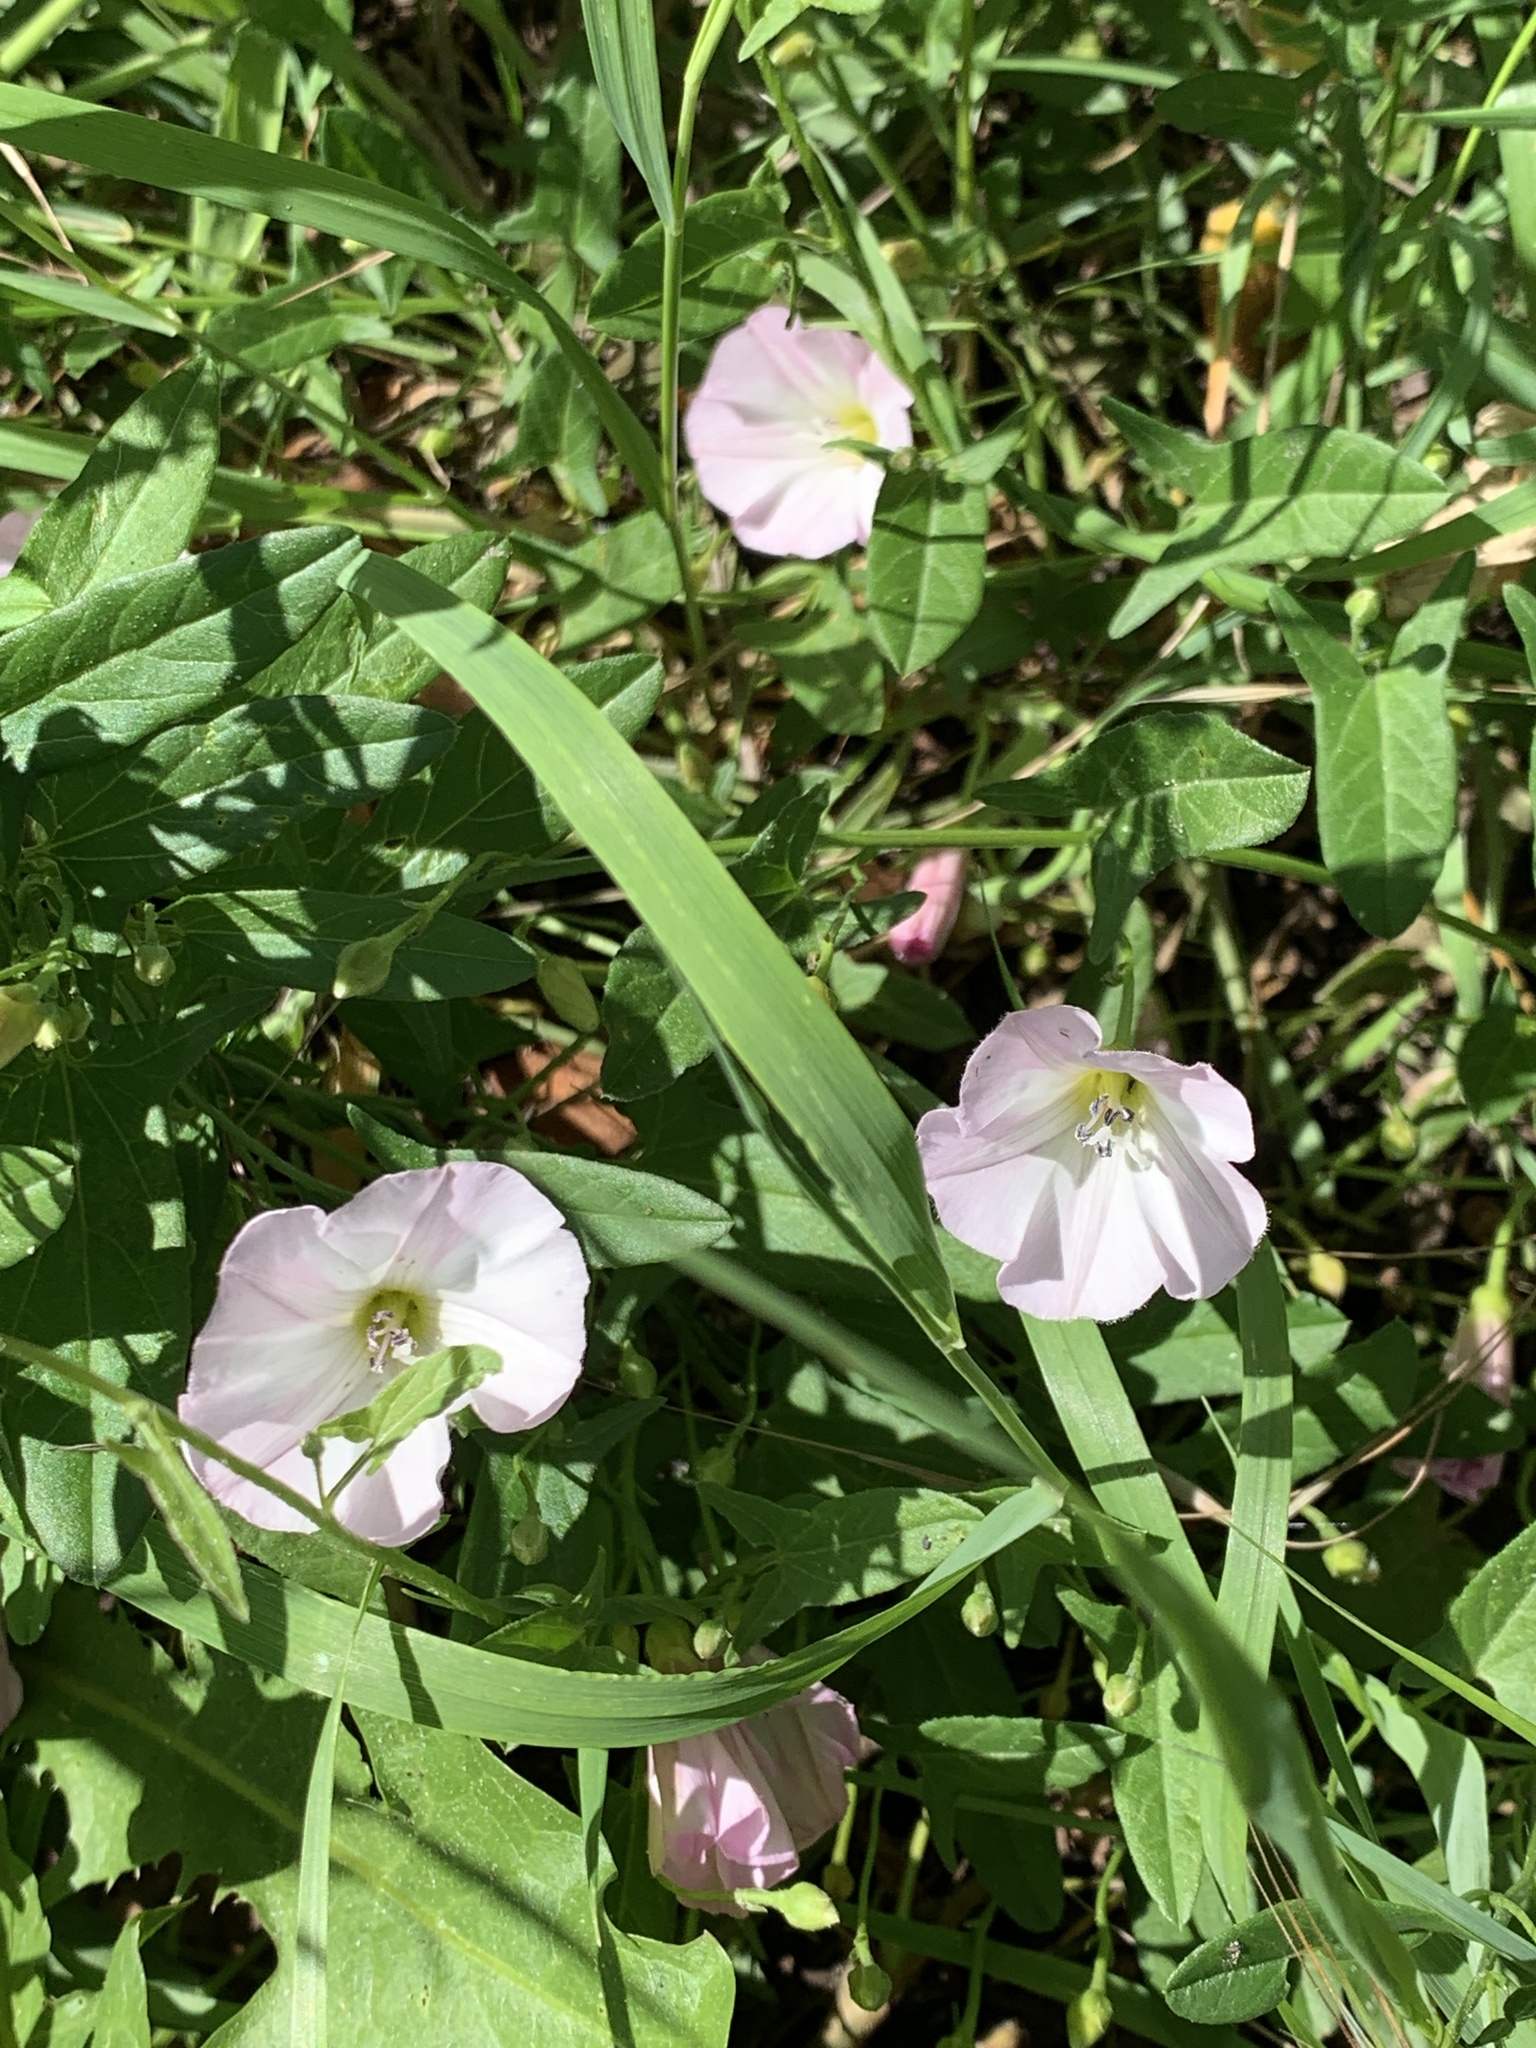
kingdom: Plantae
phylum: Tracheophyta
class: Magnoliopsida
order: Solanales
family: Convolvulaceae
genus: Convolvulus
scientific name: Convolvulus arvensis
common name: Field bindweed
